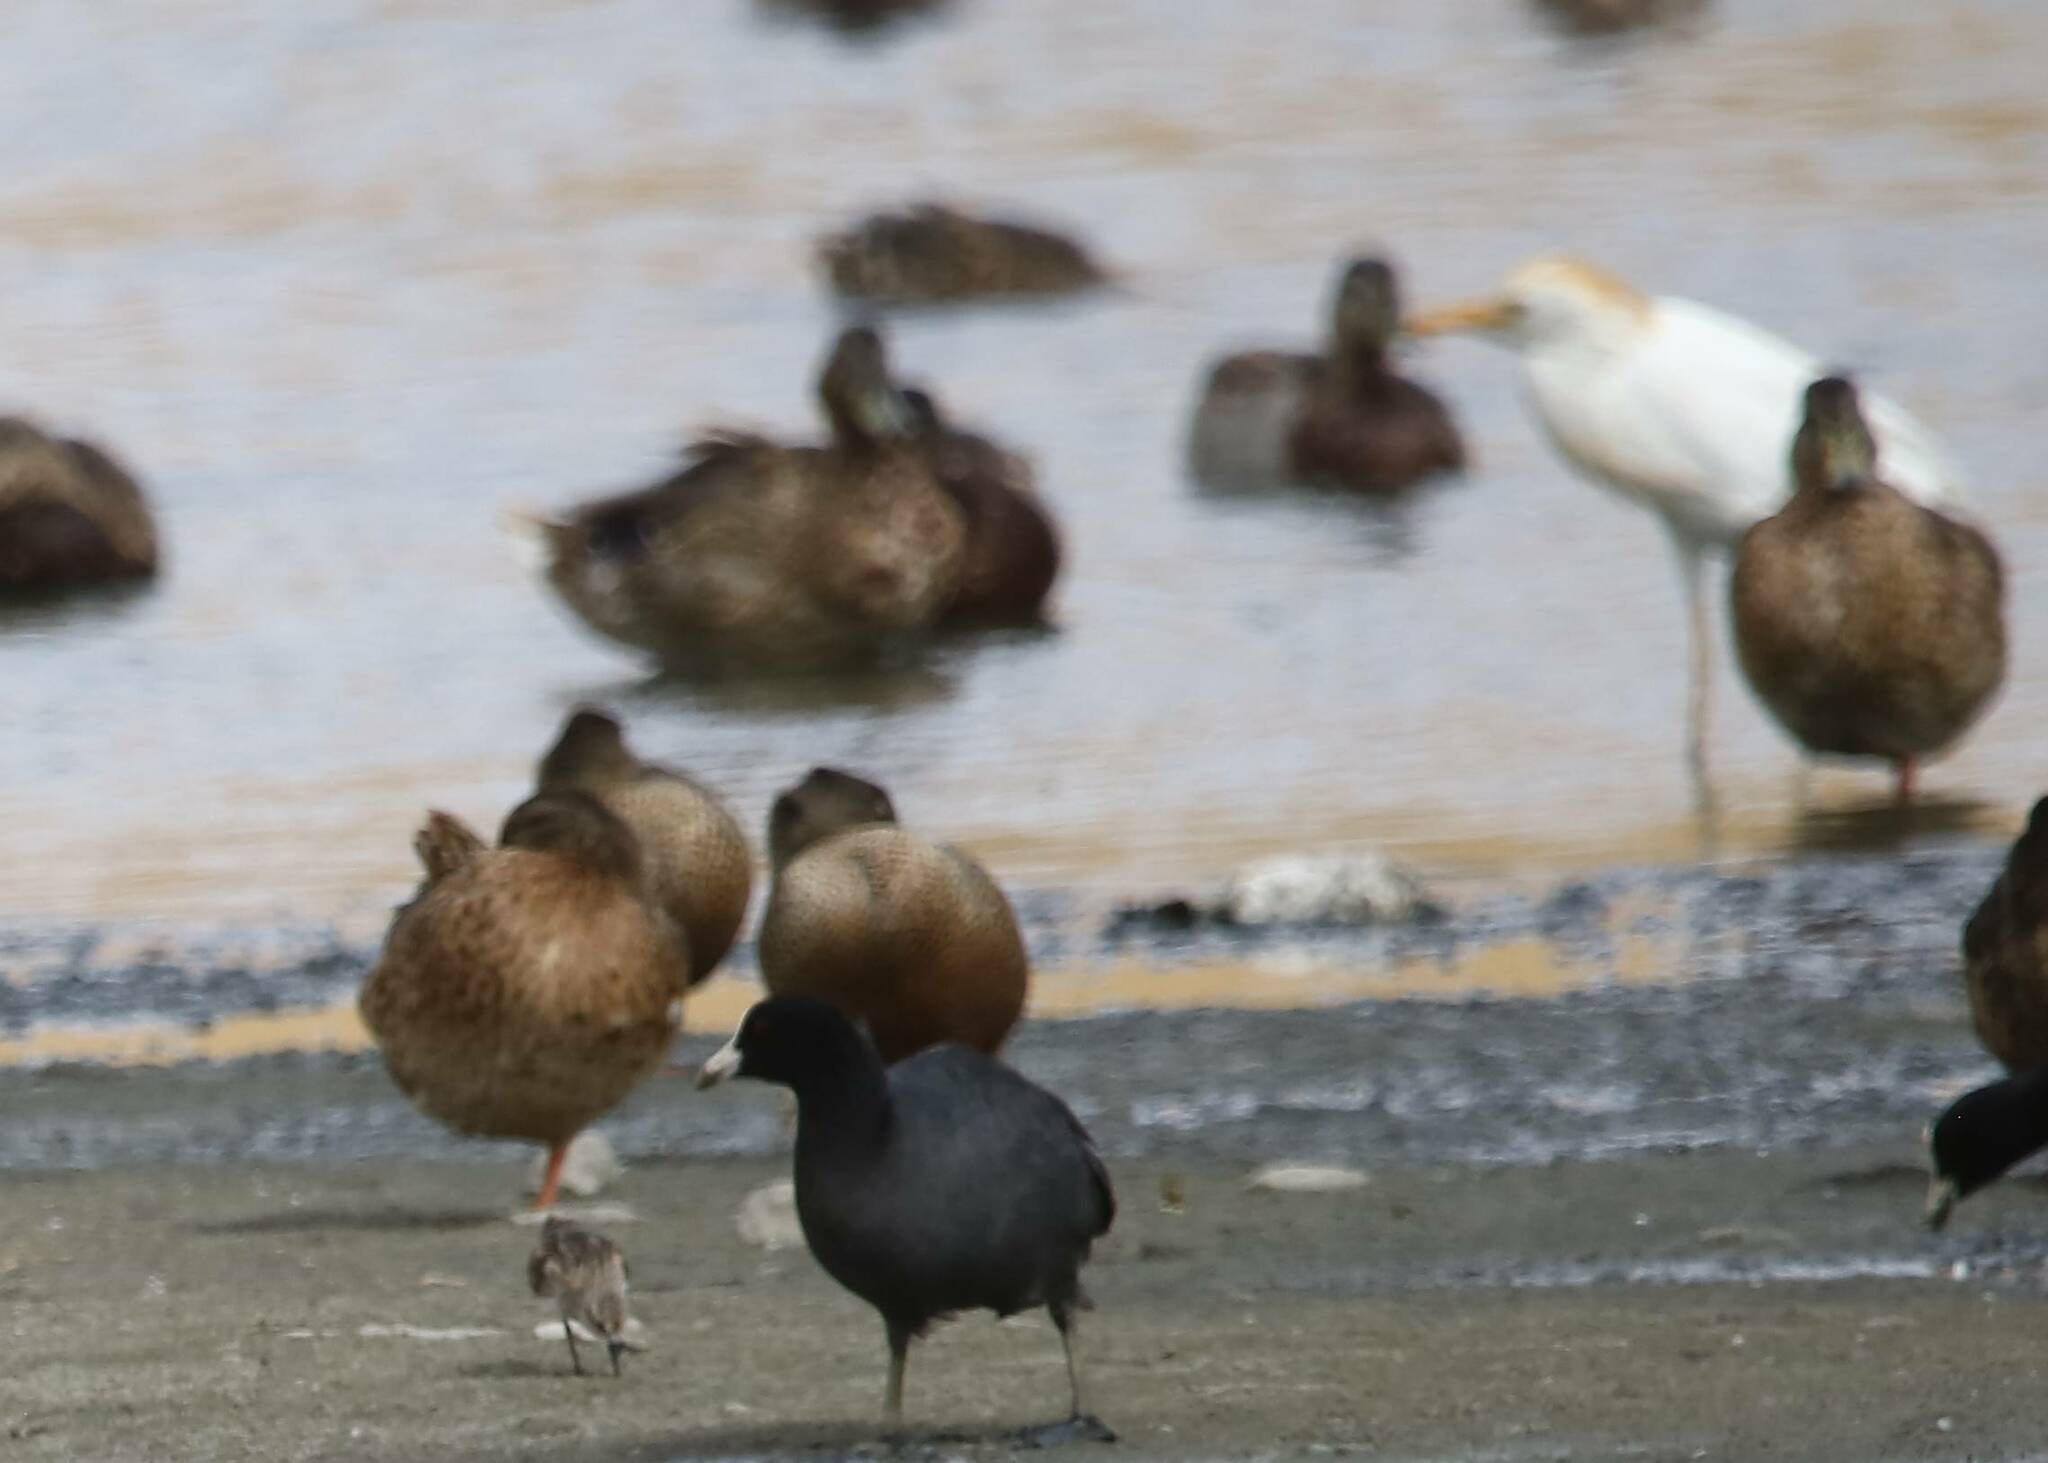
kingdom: Animalia
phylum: Chordata
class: Aves
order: Anseriformes
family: Anatidae
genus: Spatula
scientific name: Spatula clypeata
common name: Northern shoveler
